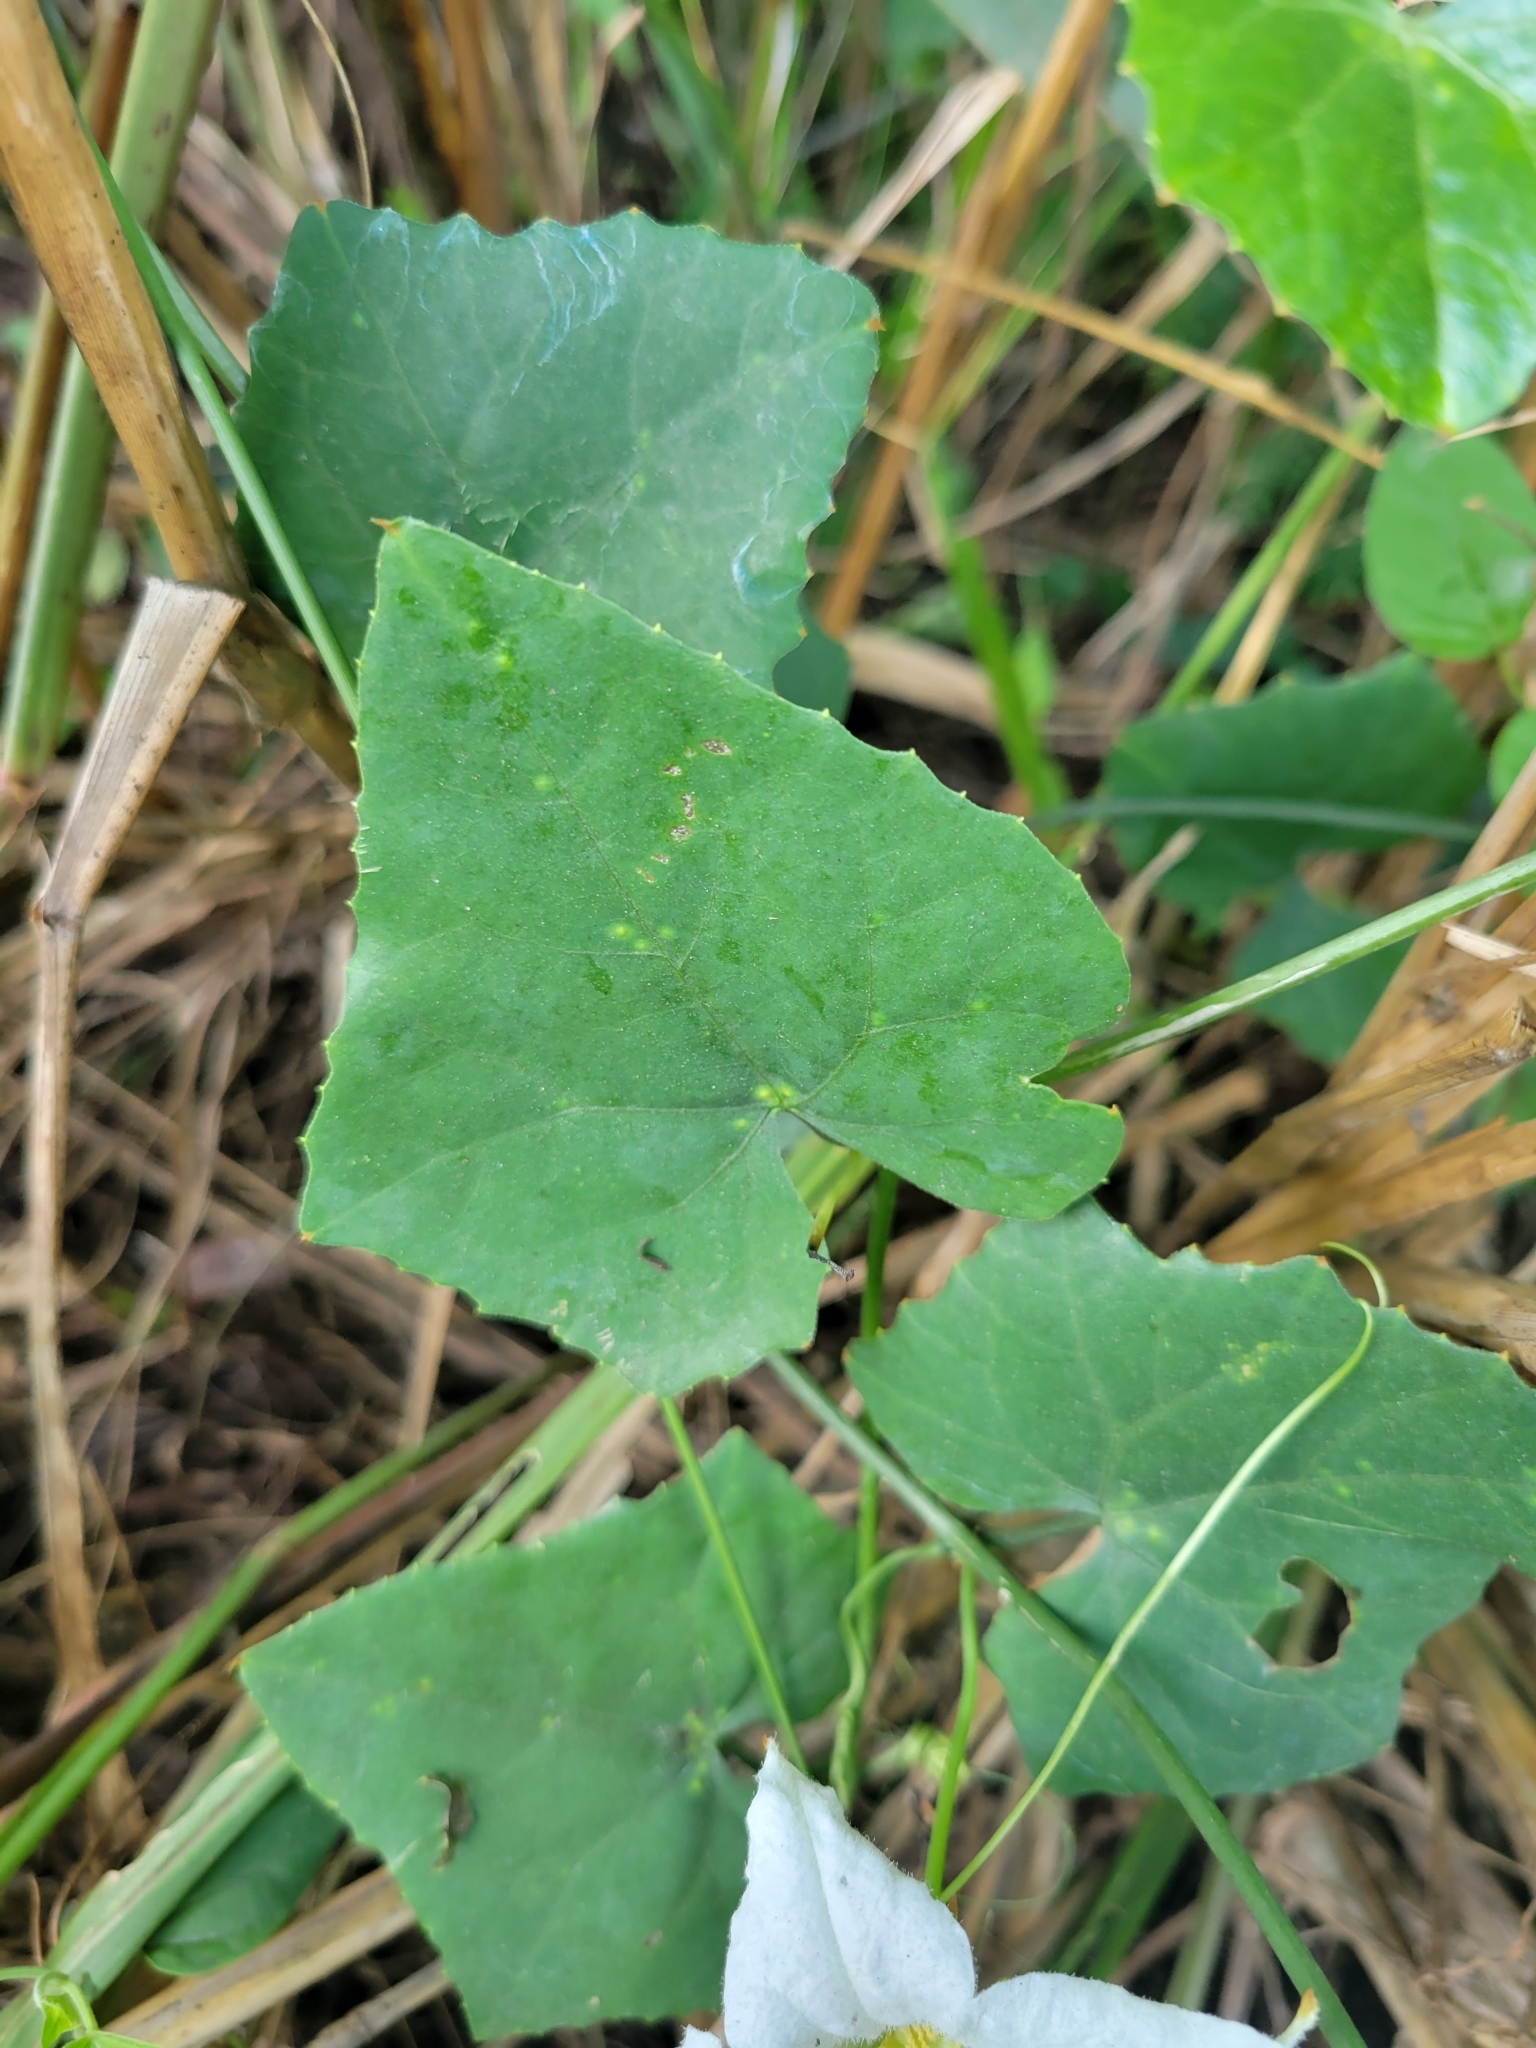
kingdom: Plantae
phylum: Tracheophyta
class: Magnoliopsida
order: Cucurbitales
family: Cucurbitaceae
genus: Coccinia
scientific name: Coccinia grandis
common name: Ivy gourd
